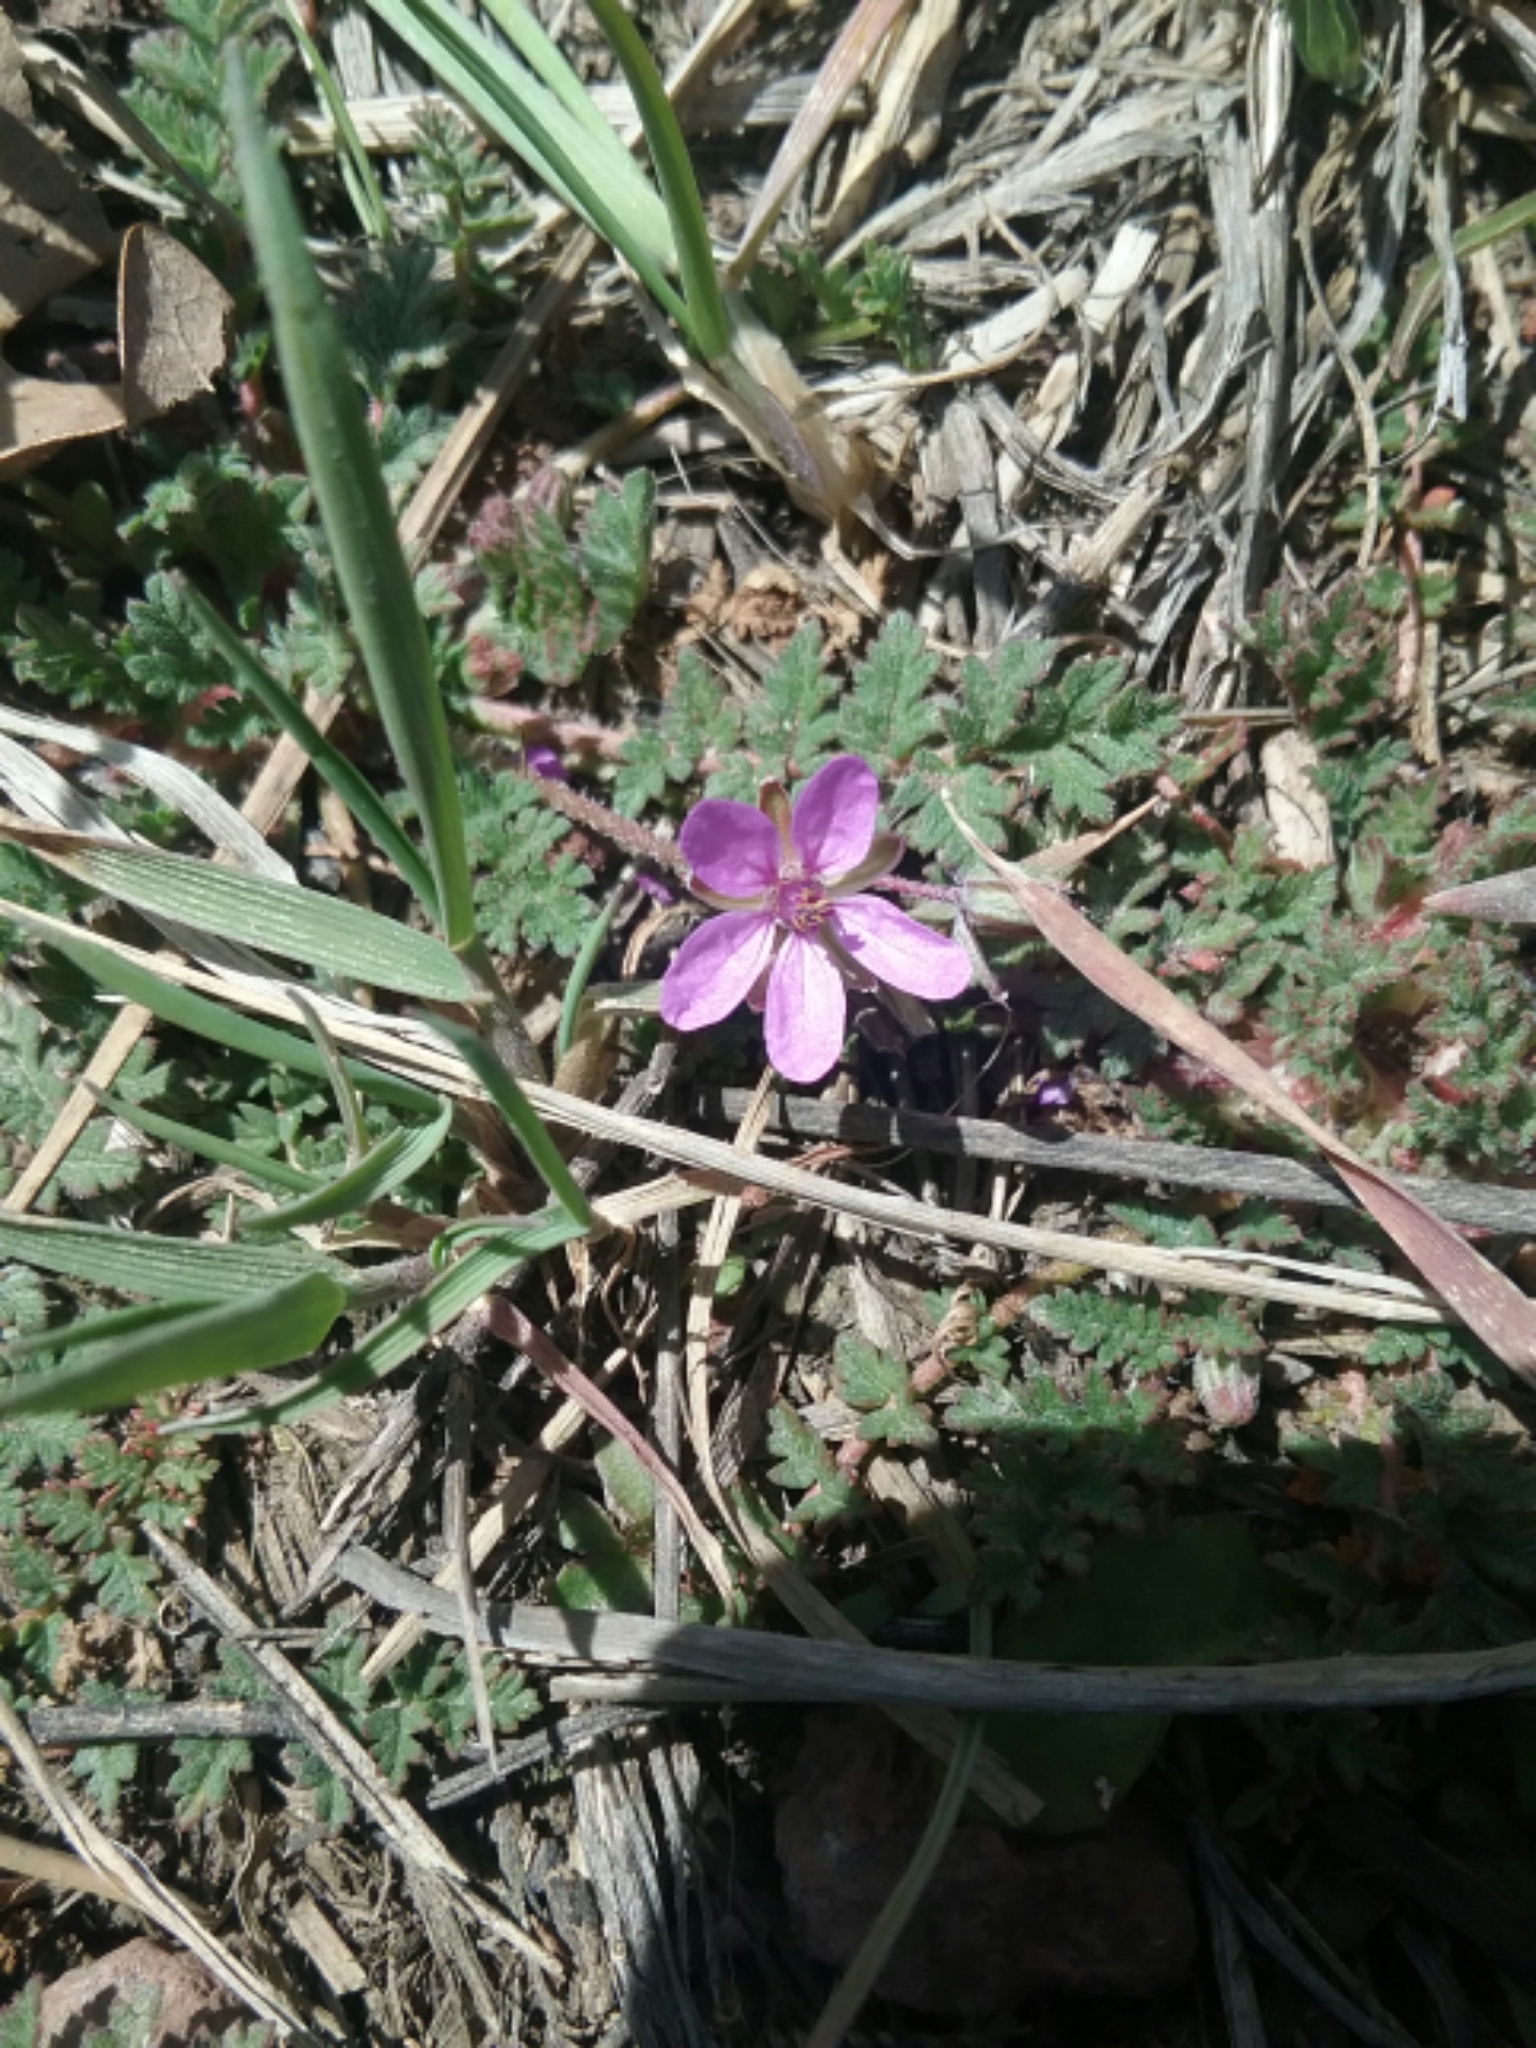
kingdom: Plantae
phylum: Tracheophyta
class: Magnoliopsida
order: Geraniales
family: Geraniaceae
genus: Erodium
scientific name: Erodium cicutarium
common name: Common stork's-bill
